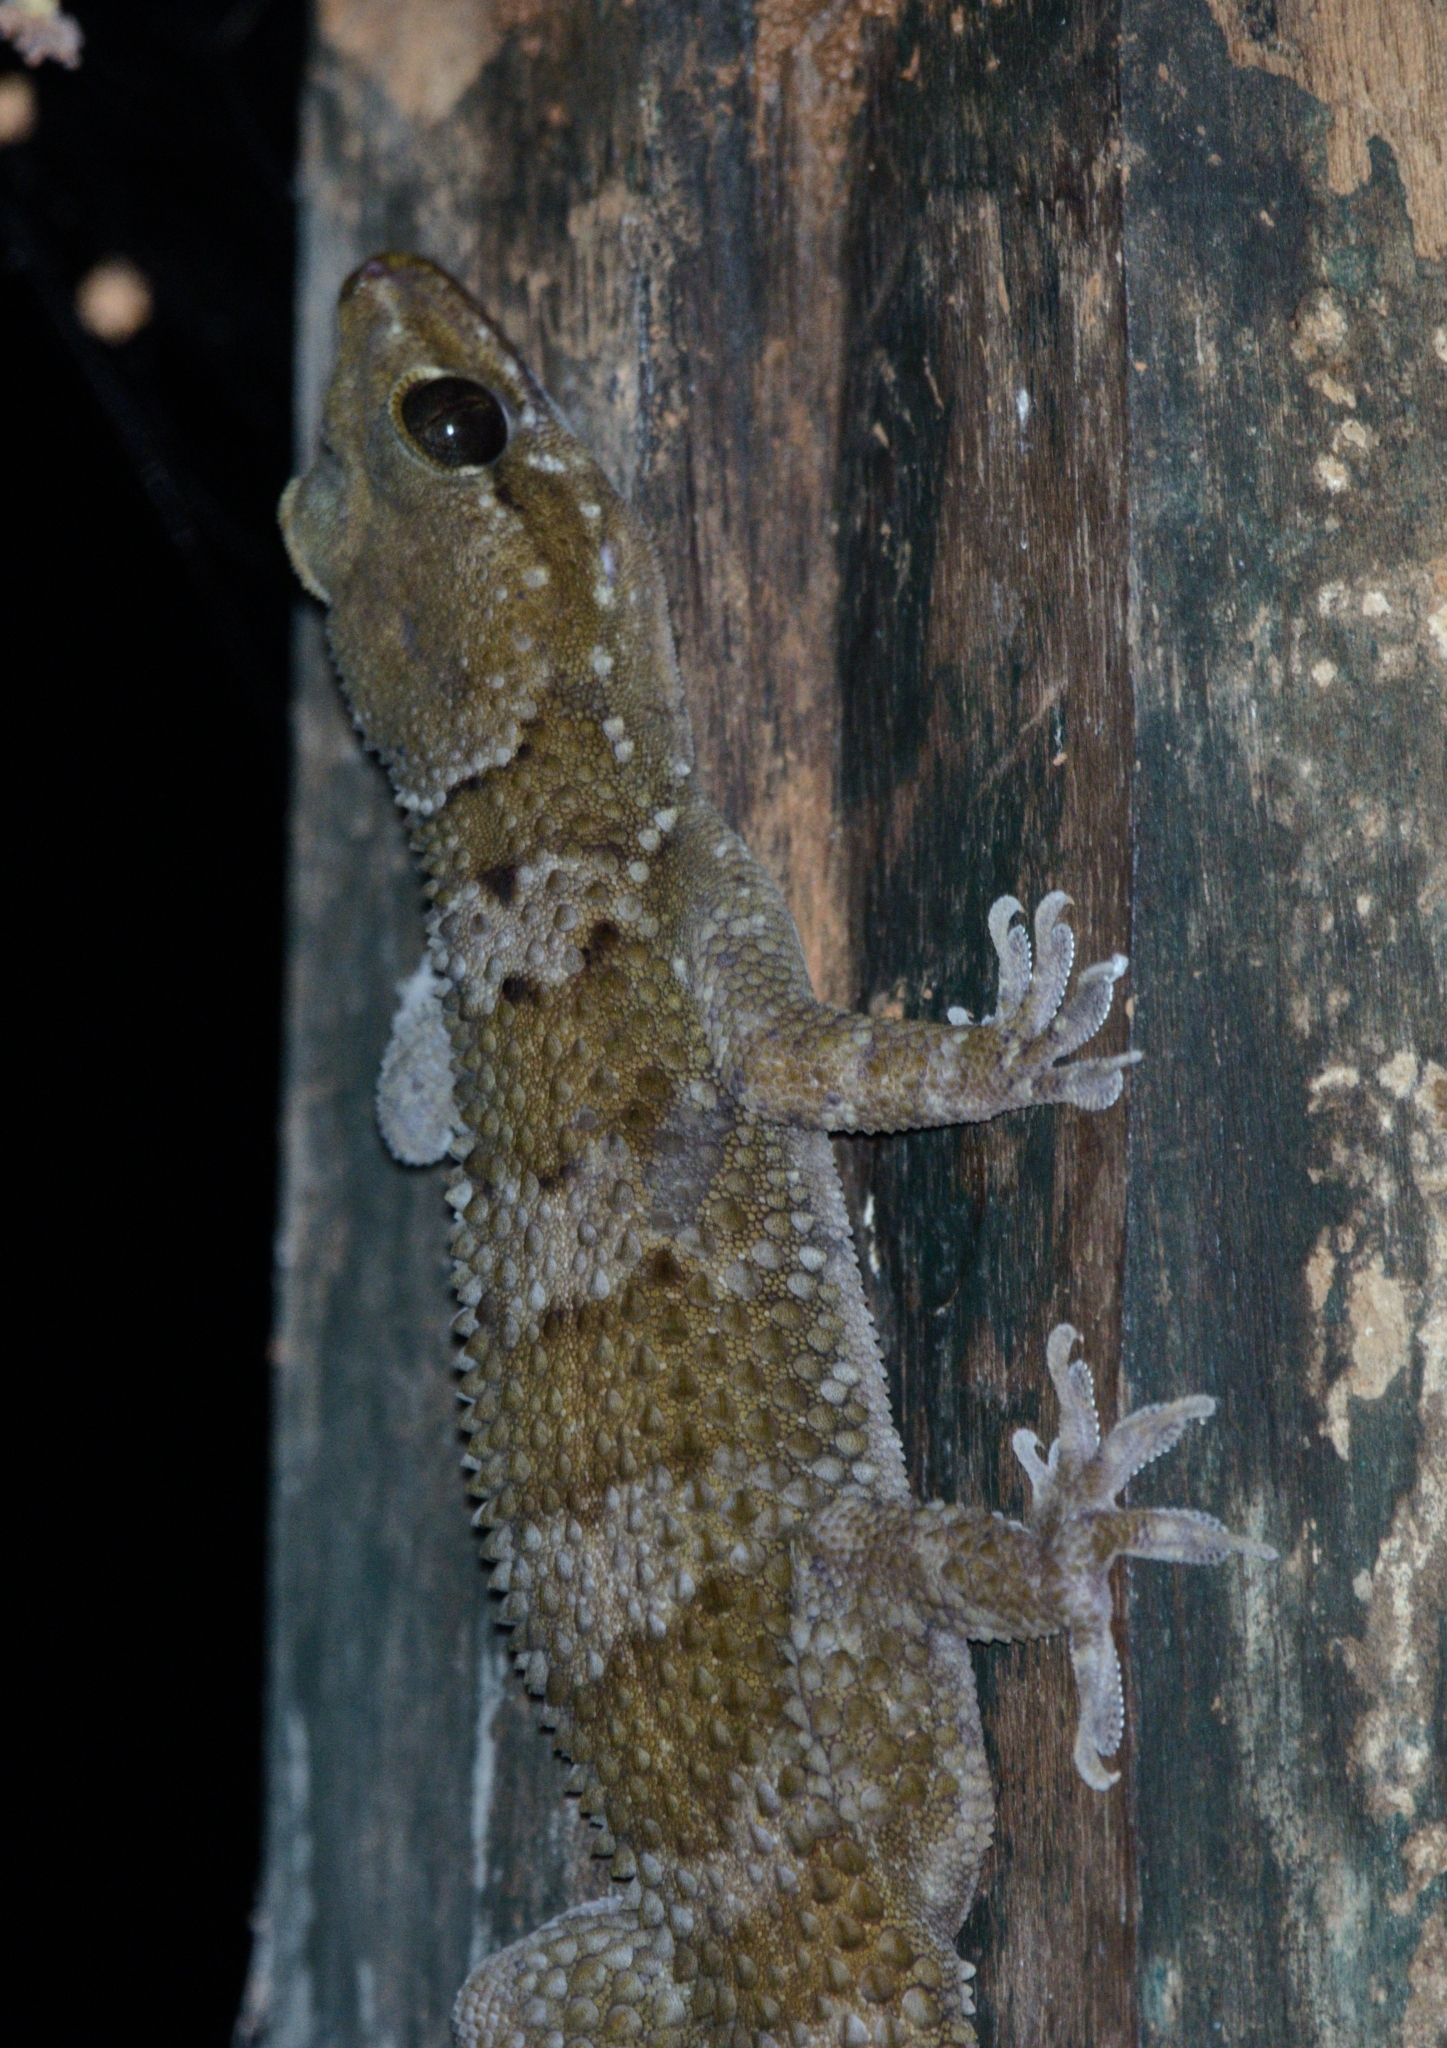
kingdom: Animalia
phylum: Chordata
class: Squamata
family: Gekkonidae
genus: Hemidactylus
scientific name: Hemidactylus kangerensis
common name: Kanger valley rock gecko
